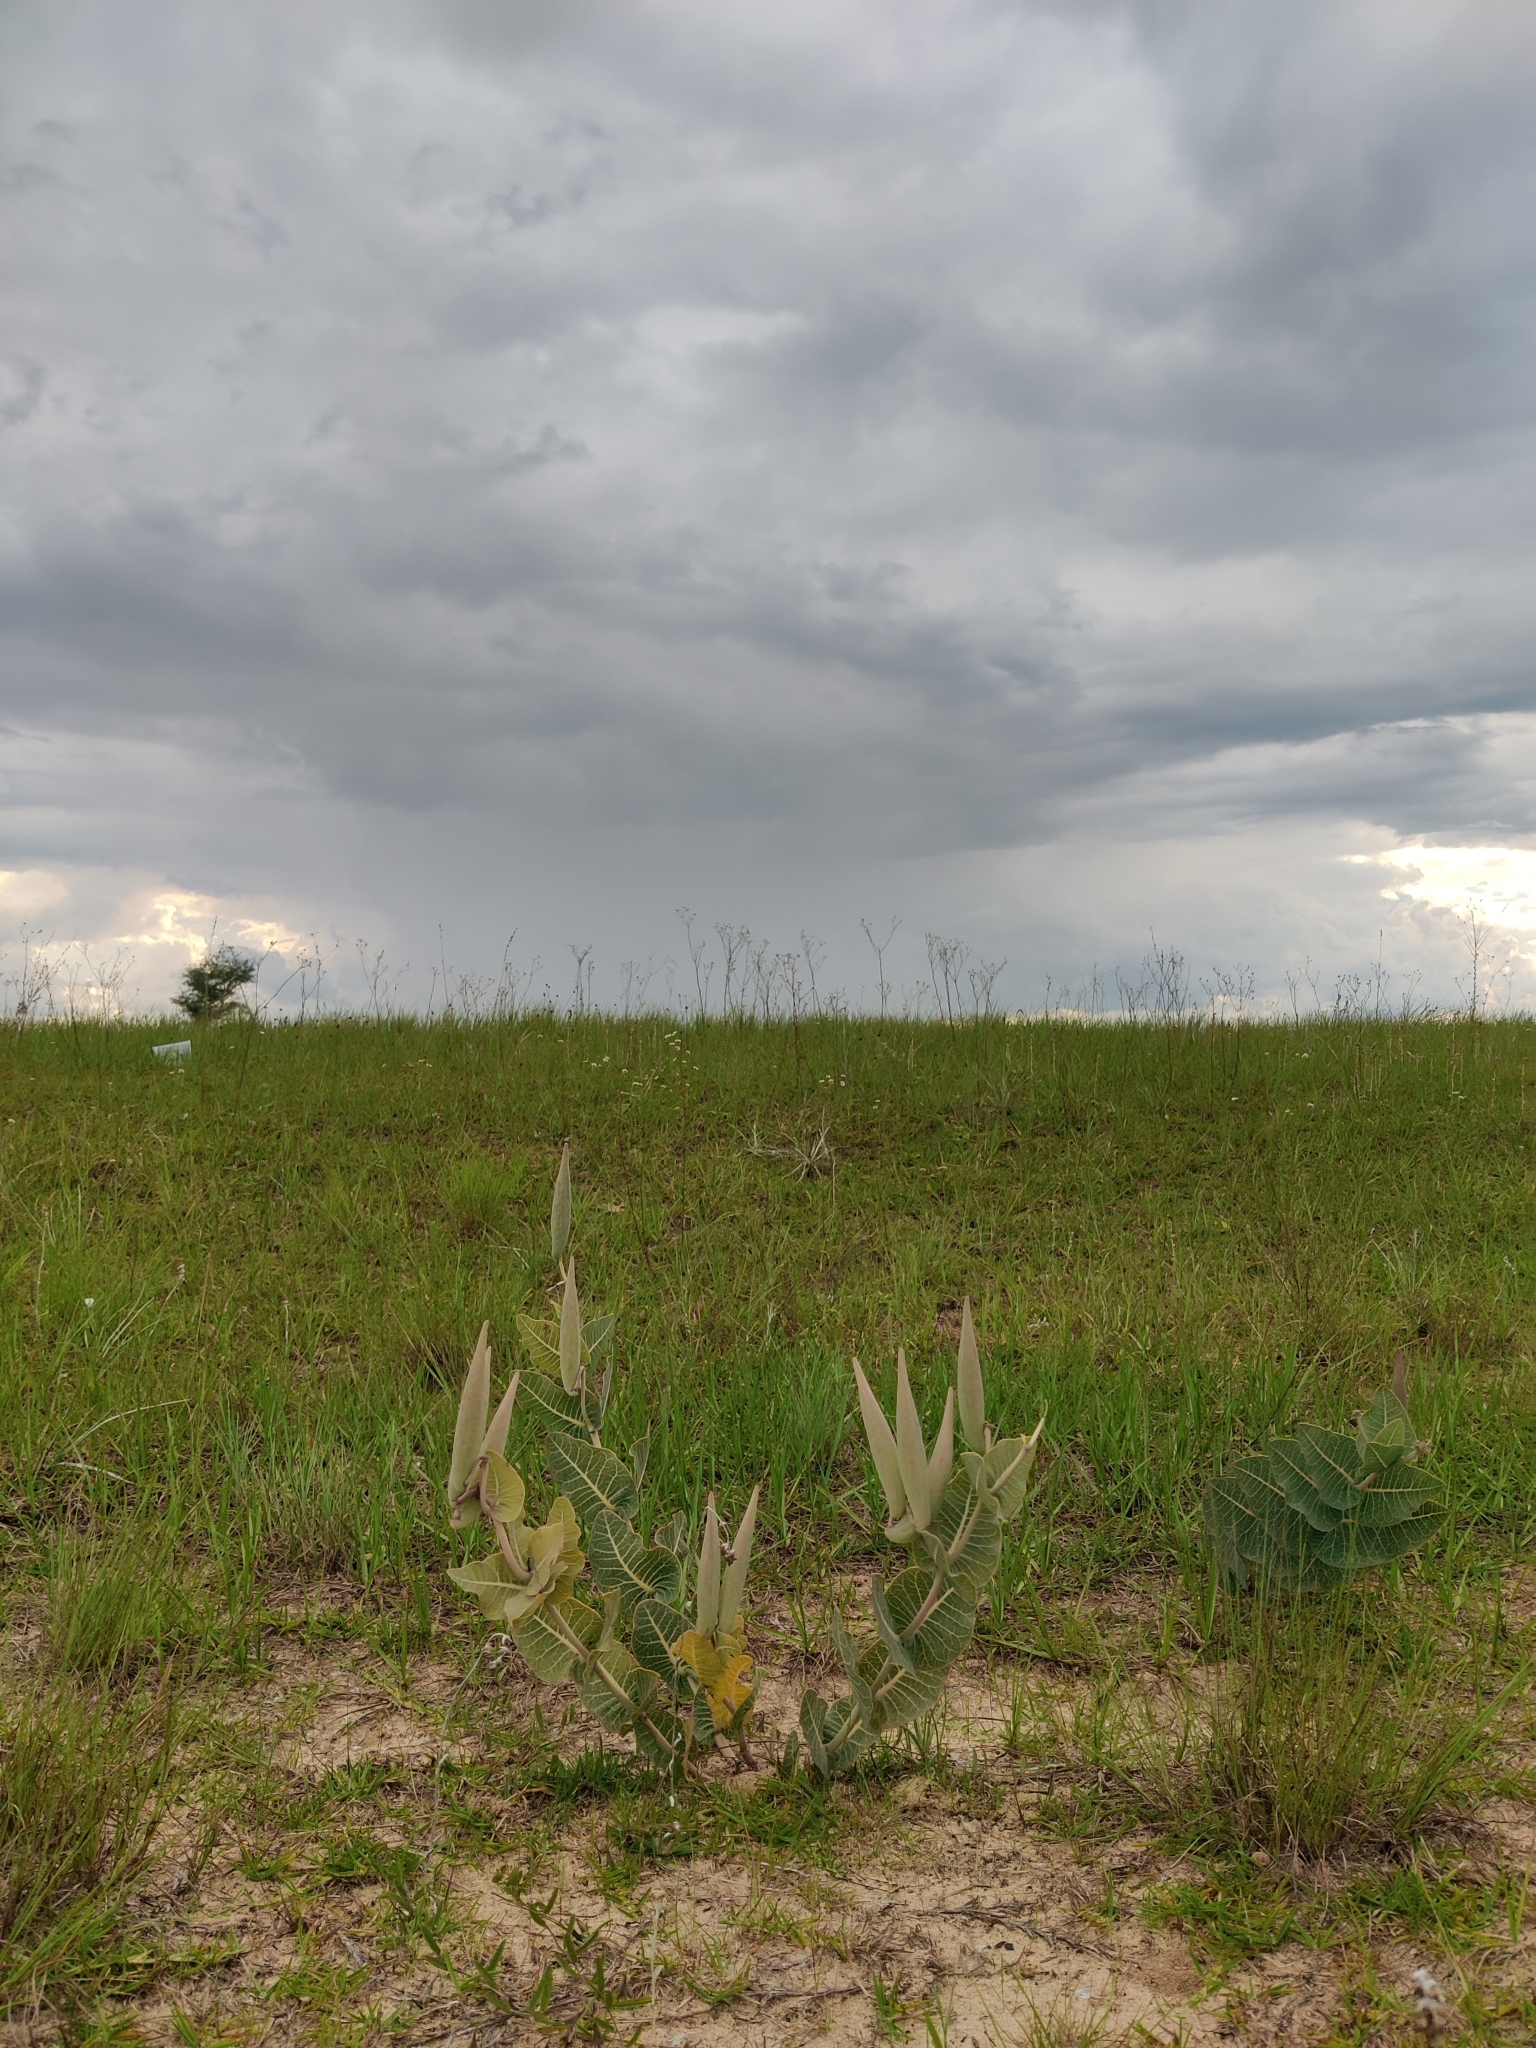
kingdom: Plantae
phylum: Tracheophyta
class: Magnoliopsida
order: Gentianales
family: Apocynaceae
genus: Asclepias
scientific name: Asclepias humistrata
